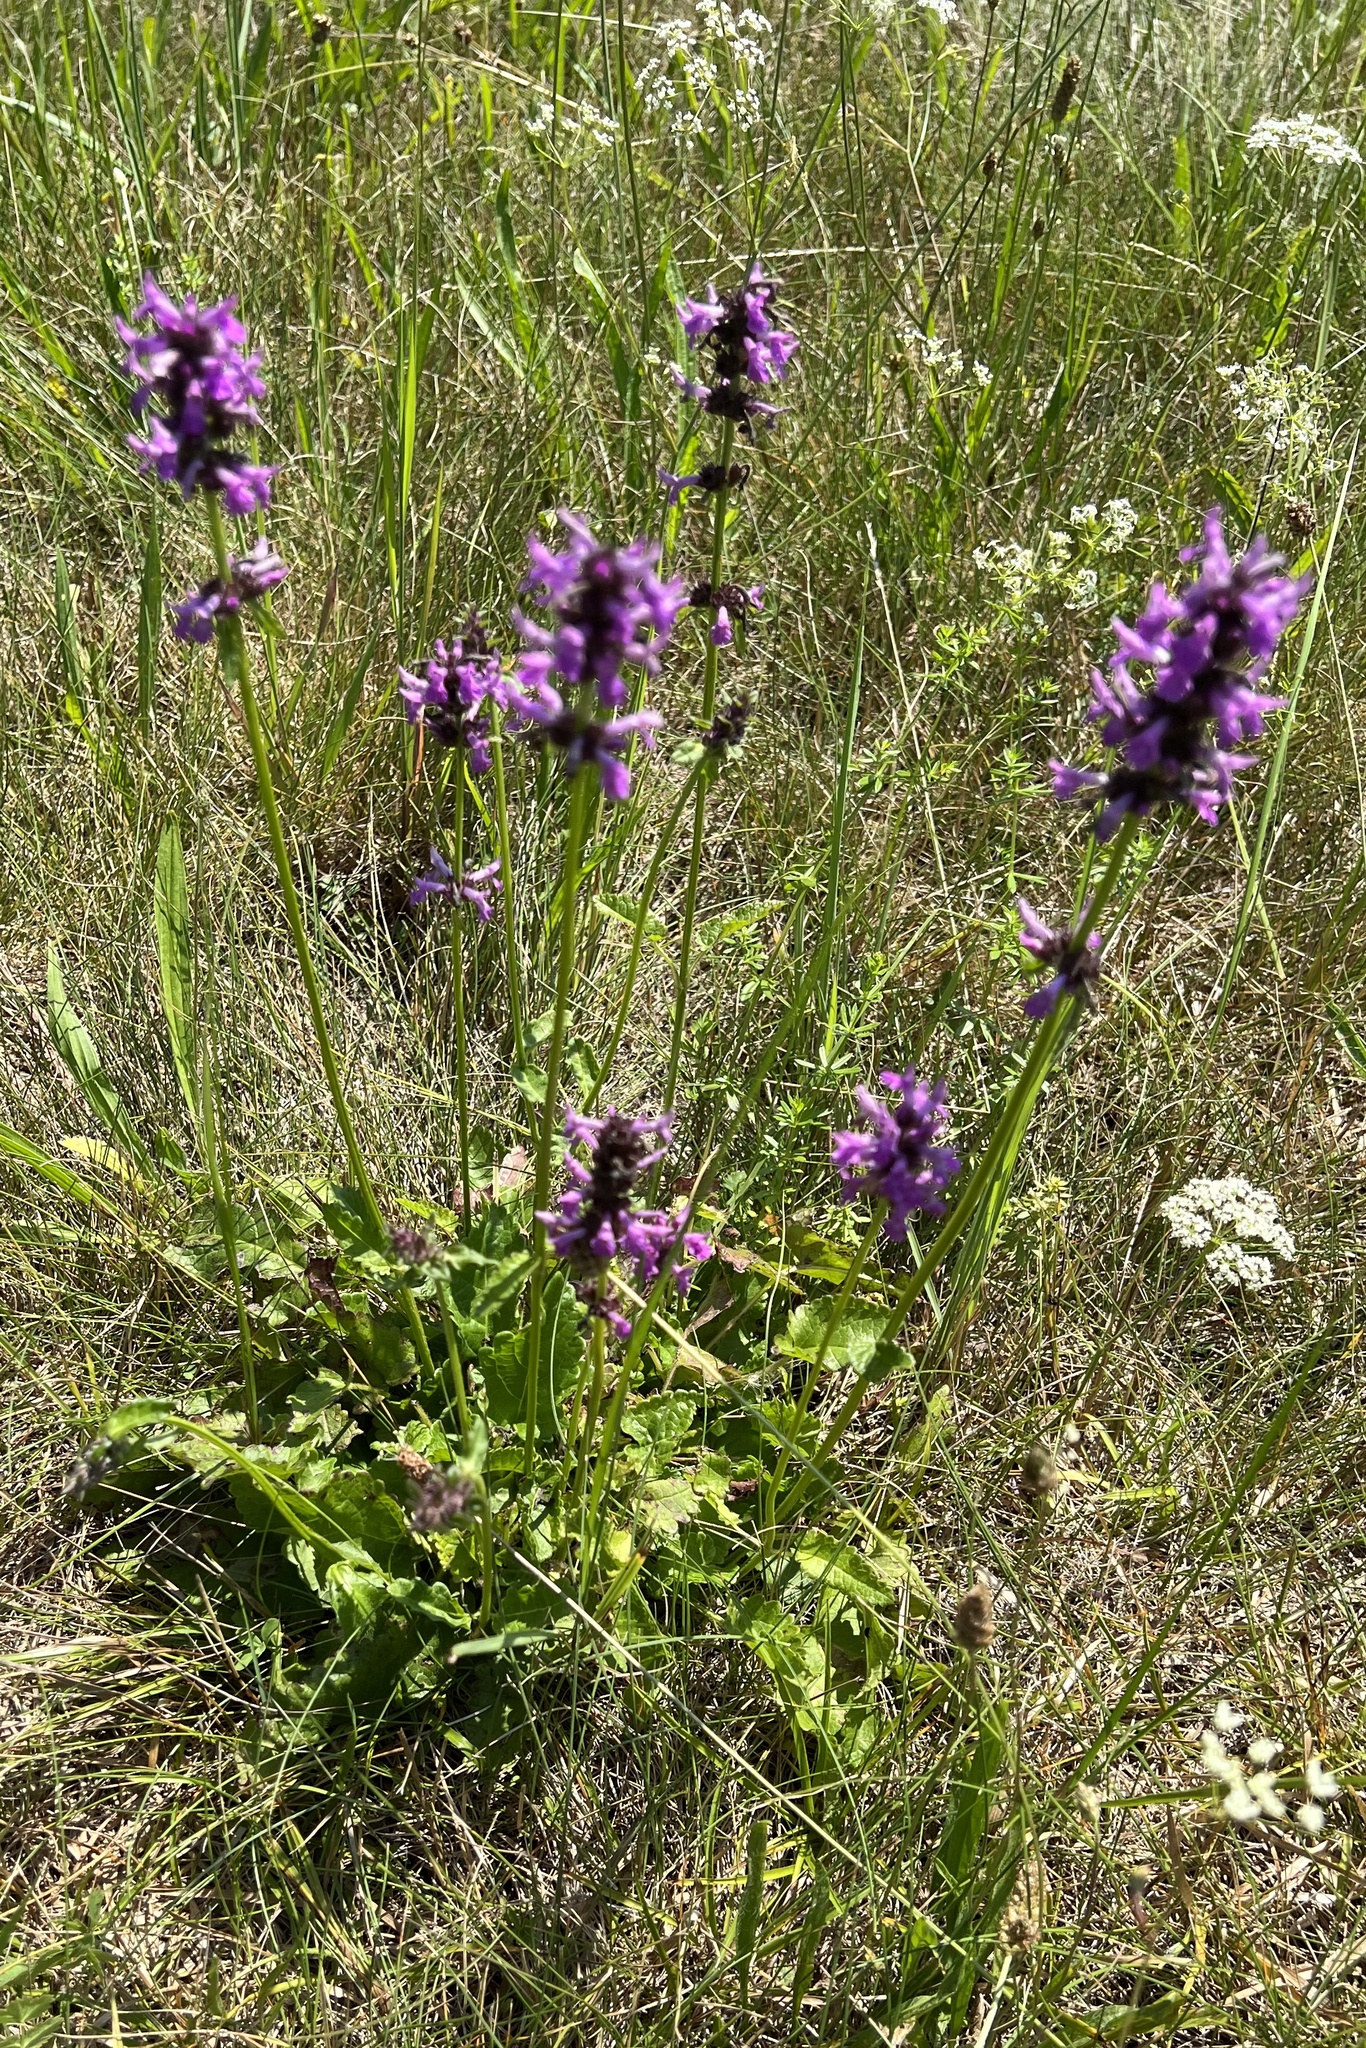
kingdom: Plantae
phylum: Tracheophyta
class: Magnoliopsida
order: Lamiales
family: Lamiaceae
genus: Betonica
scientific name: Betonica officinalis
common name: Bishop's-wort
